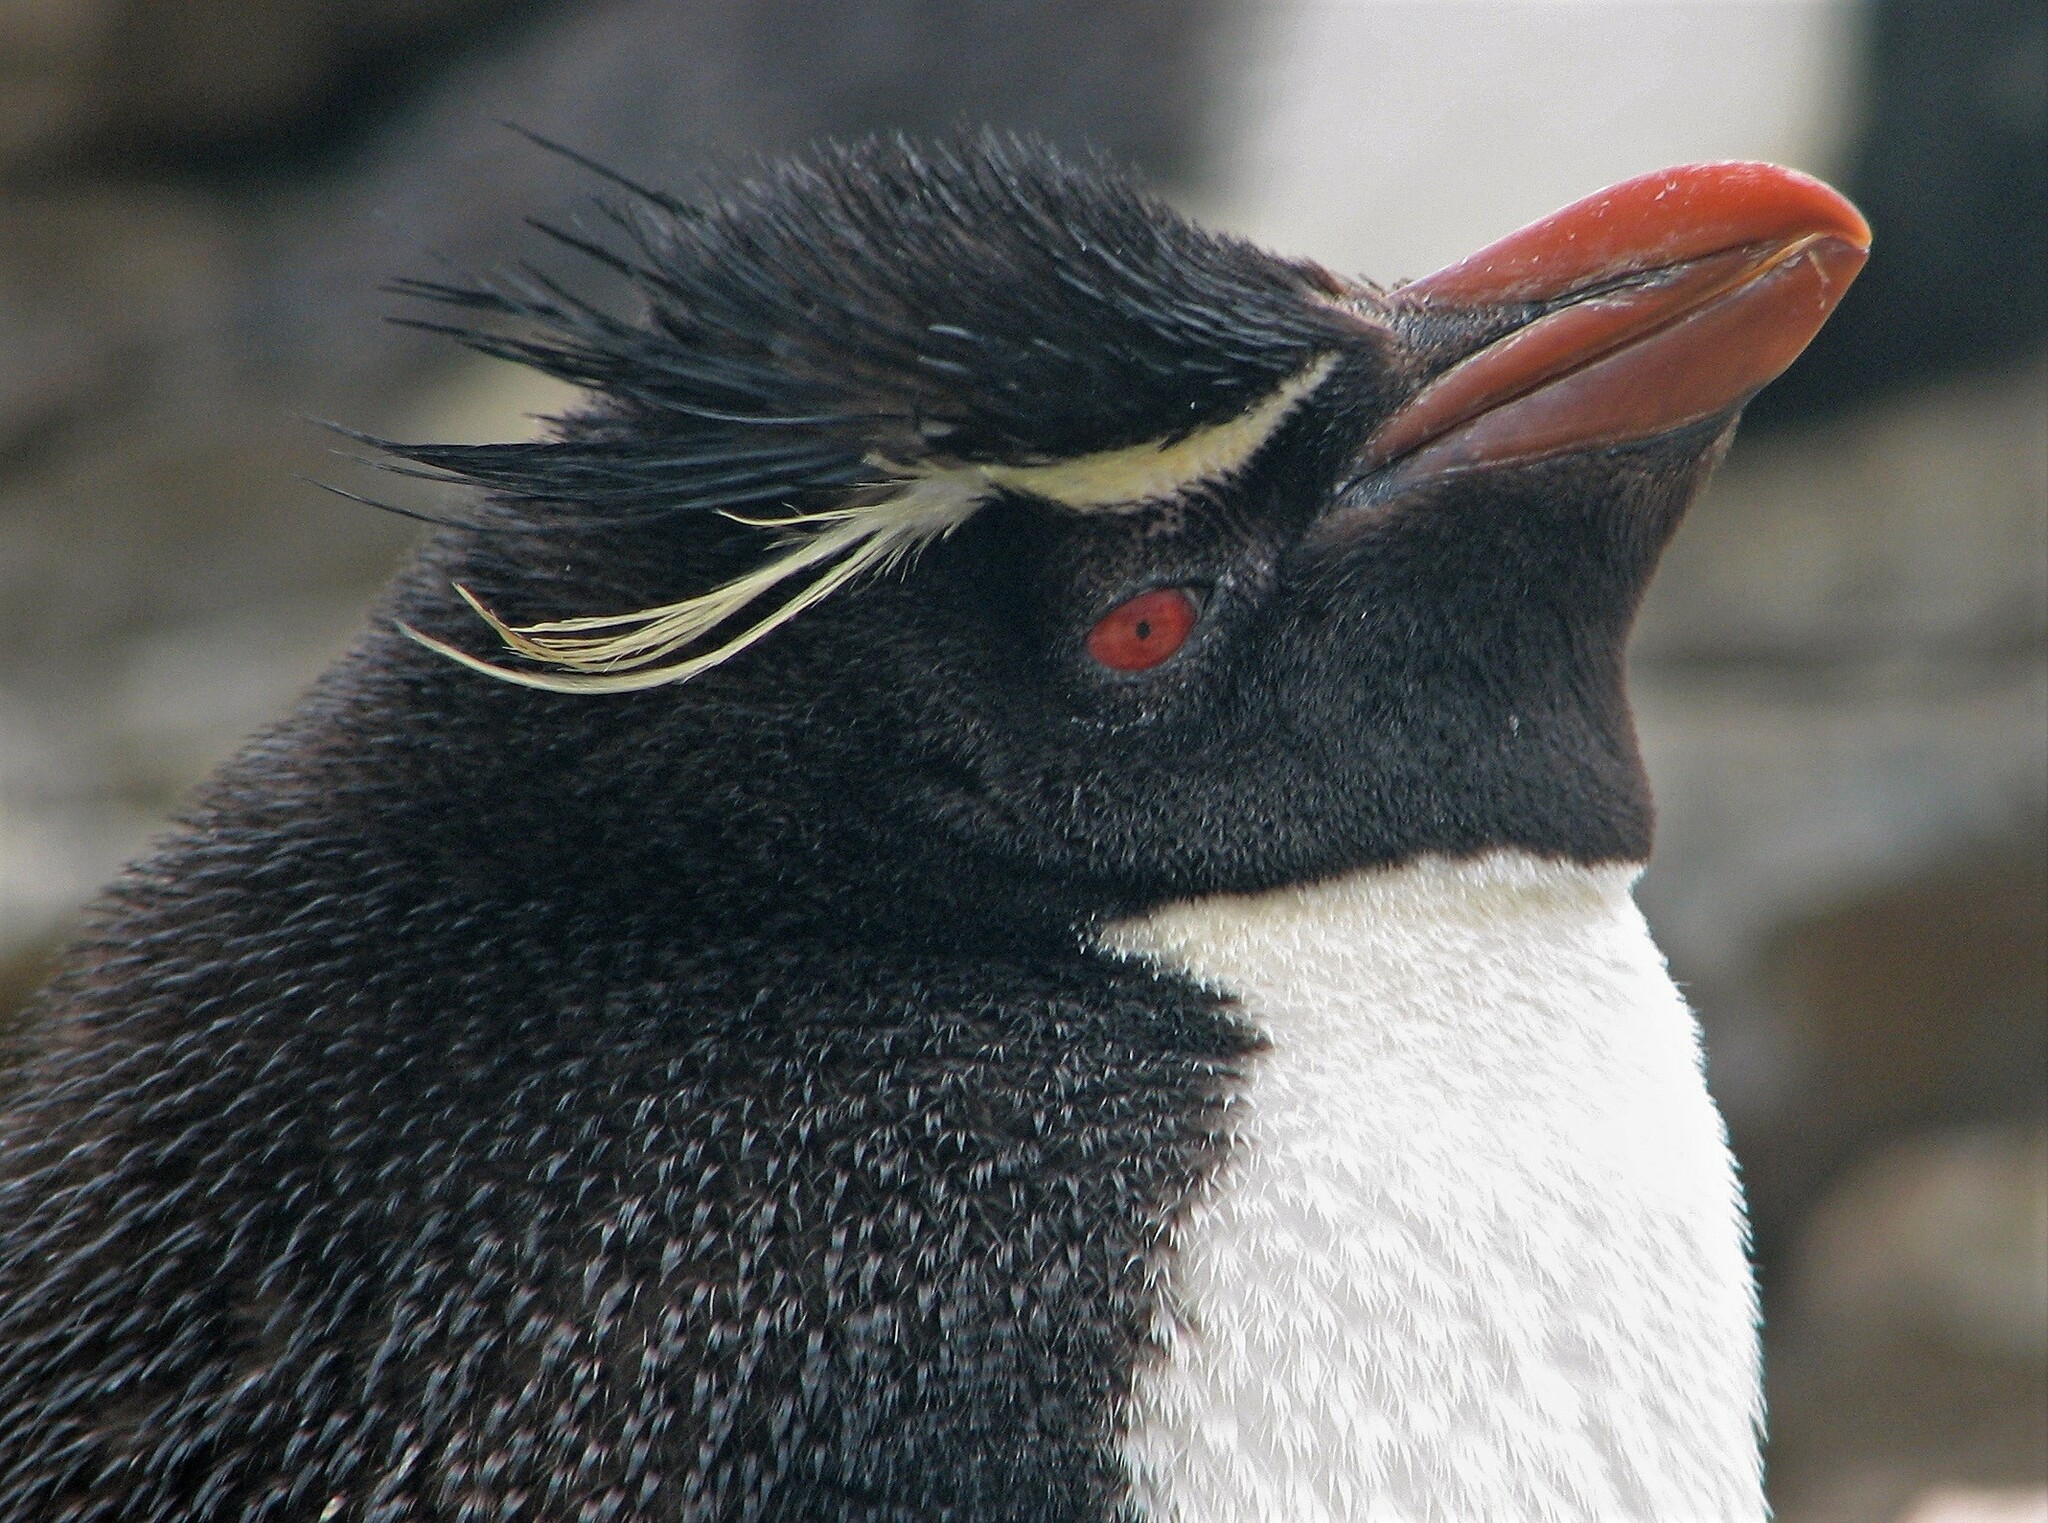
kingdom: Animalia
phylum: Chordata
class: Aves
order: Sphenisciformes
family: Spheniscidae
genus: Eudyptes
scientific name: Eudyptes chrysocome
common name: Southern rockhopper penguin
